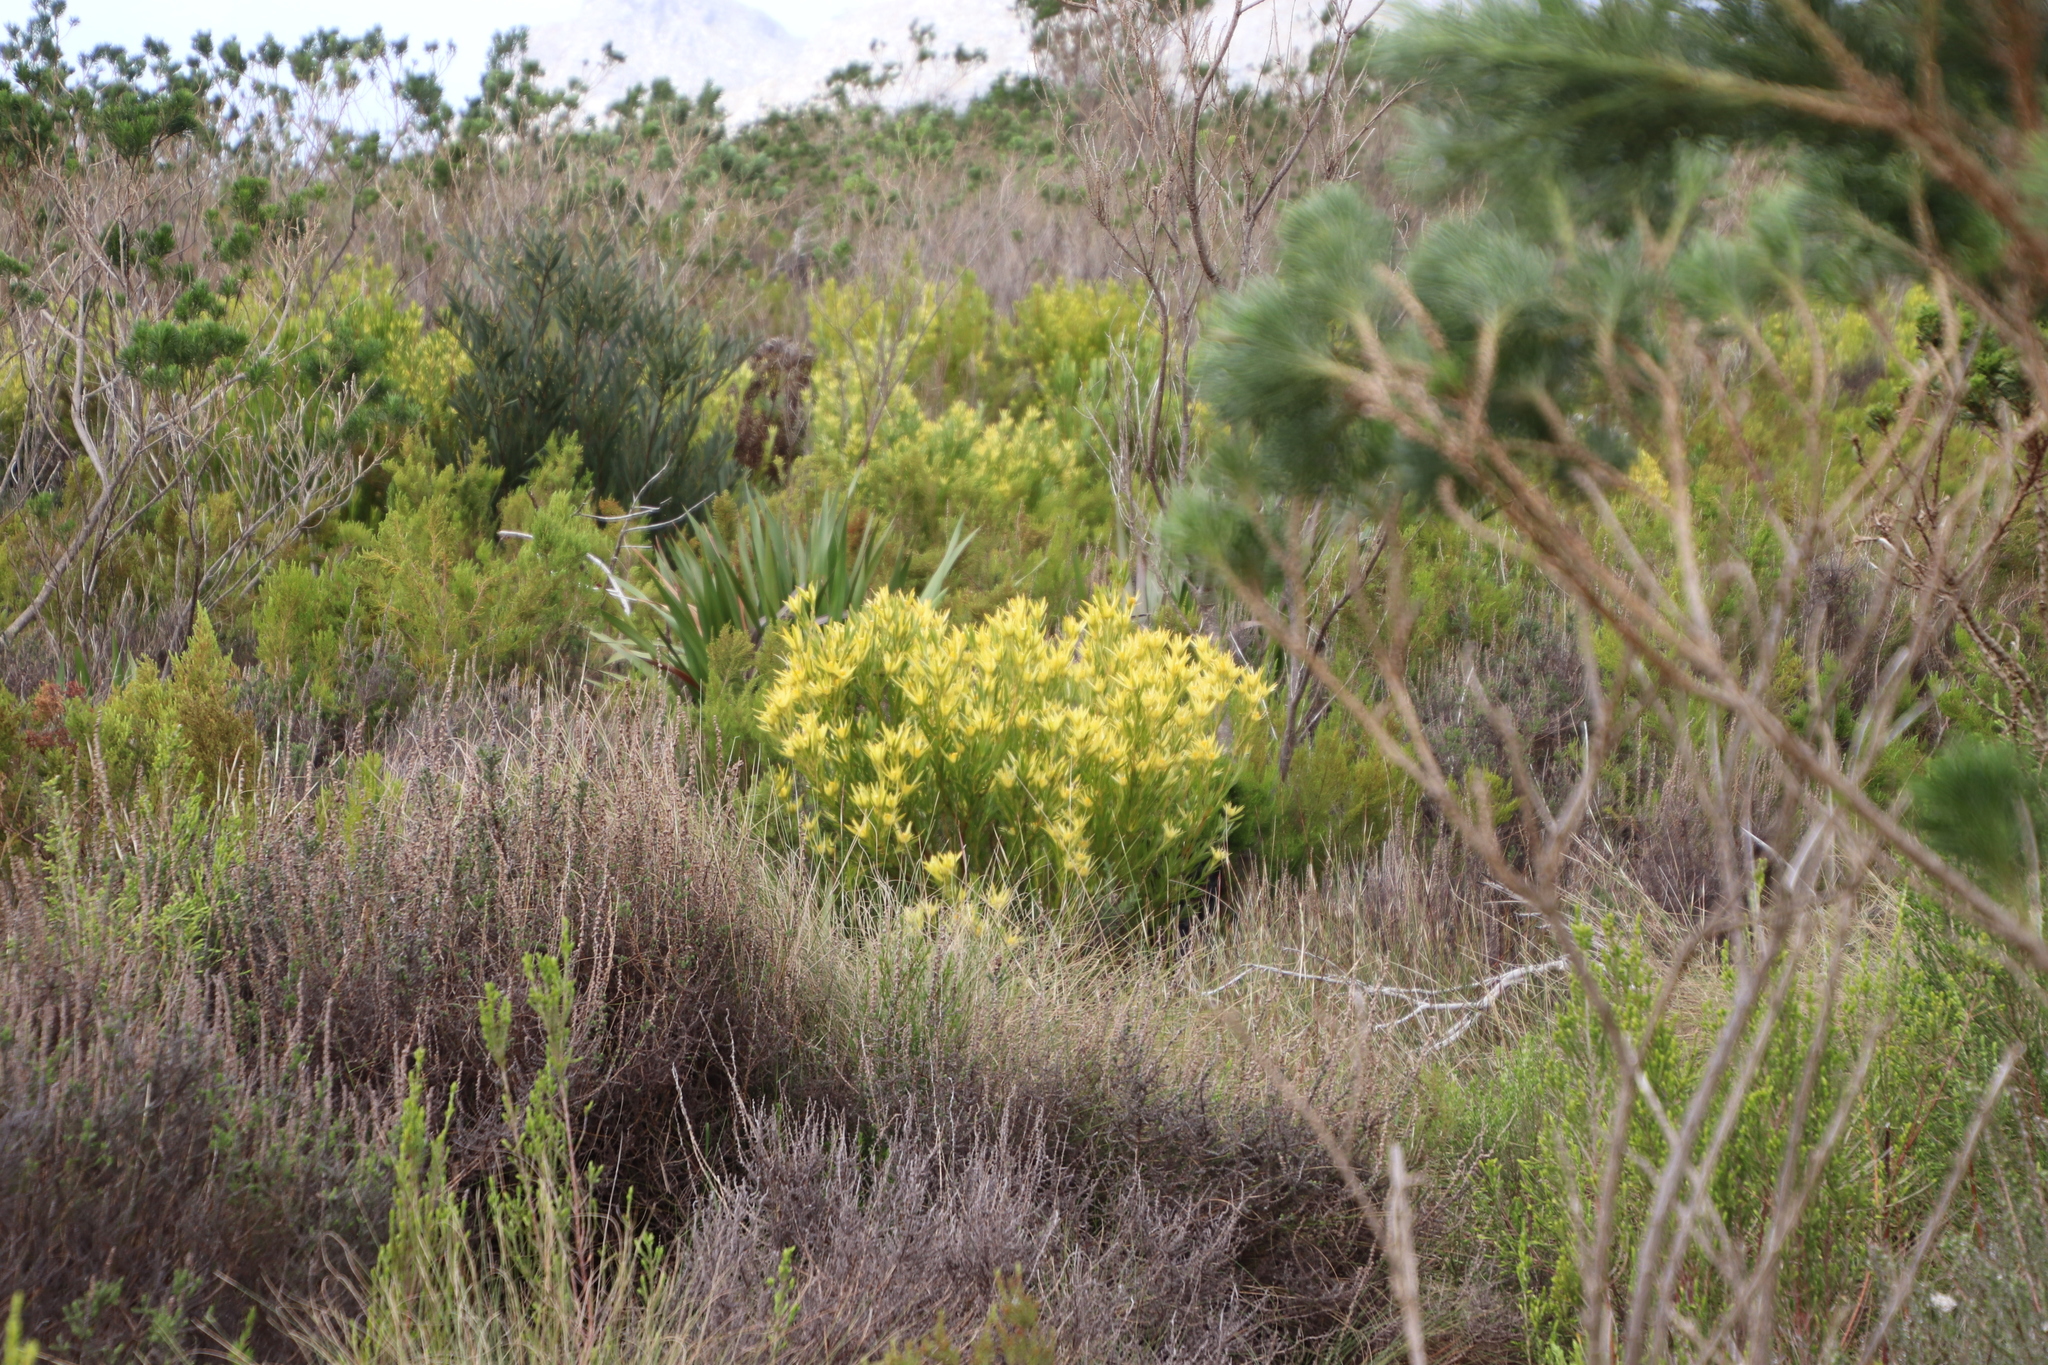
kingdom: Plantae
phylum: Tracheophyta
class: Magnoliopsida
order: Proteales
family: Proteaceae
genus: Leucadendron
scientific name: Leucadendron xanthoconus
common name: Sickle-leaf conebush
